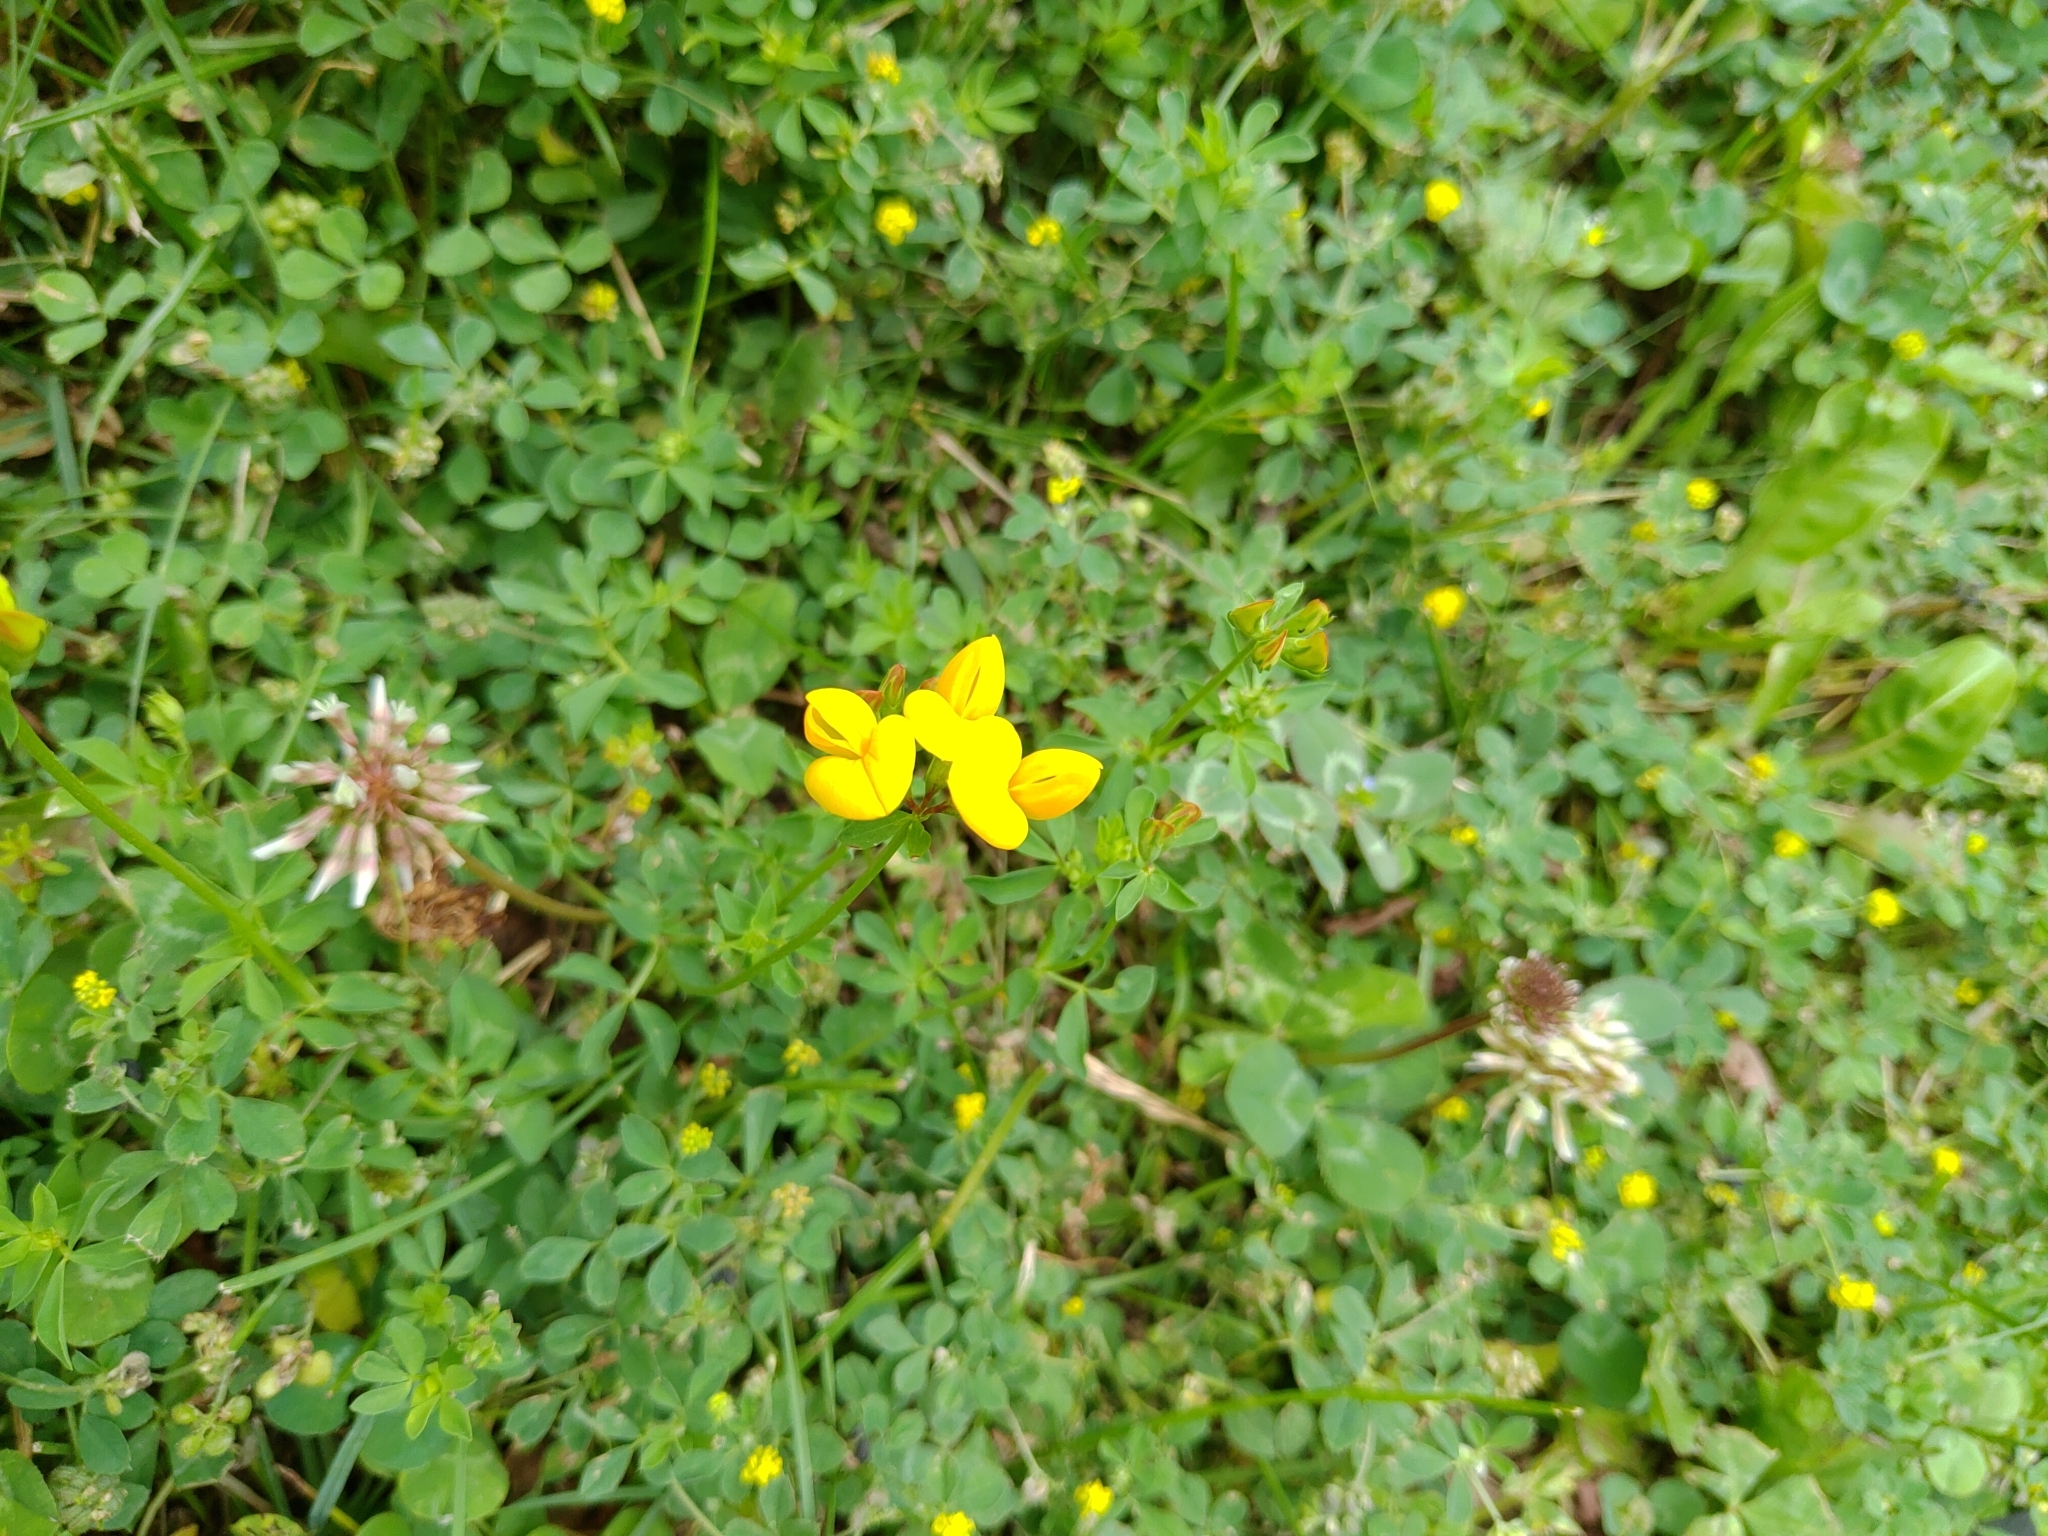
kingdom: Plantae
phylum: Tracheophyta
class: Magnoliopsida
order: Fabales
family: Fabaceae
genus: Lotus
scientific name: Lotus corniculatus
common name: Common bird's-foot-trefoil
